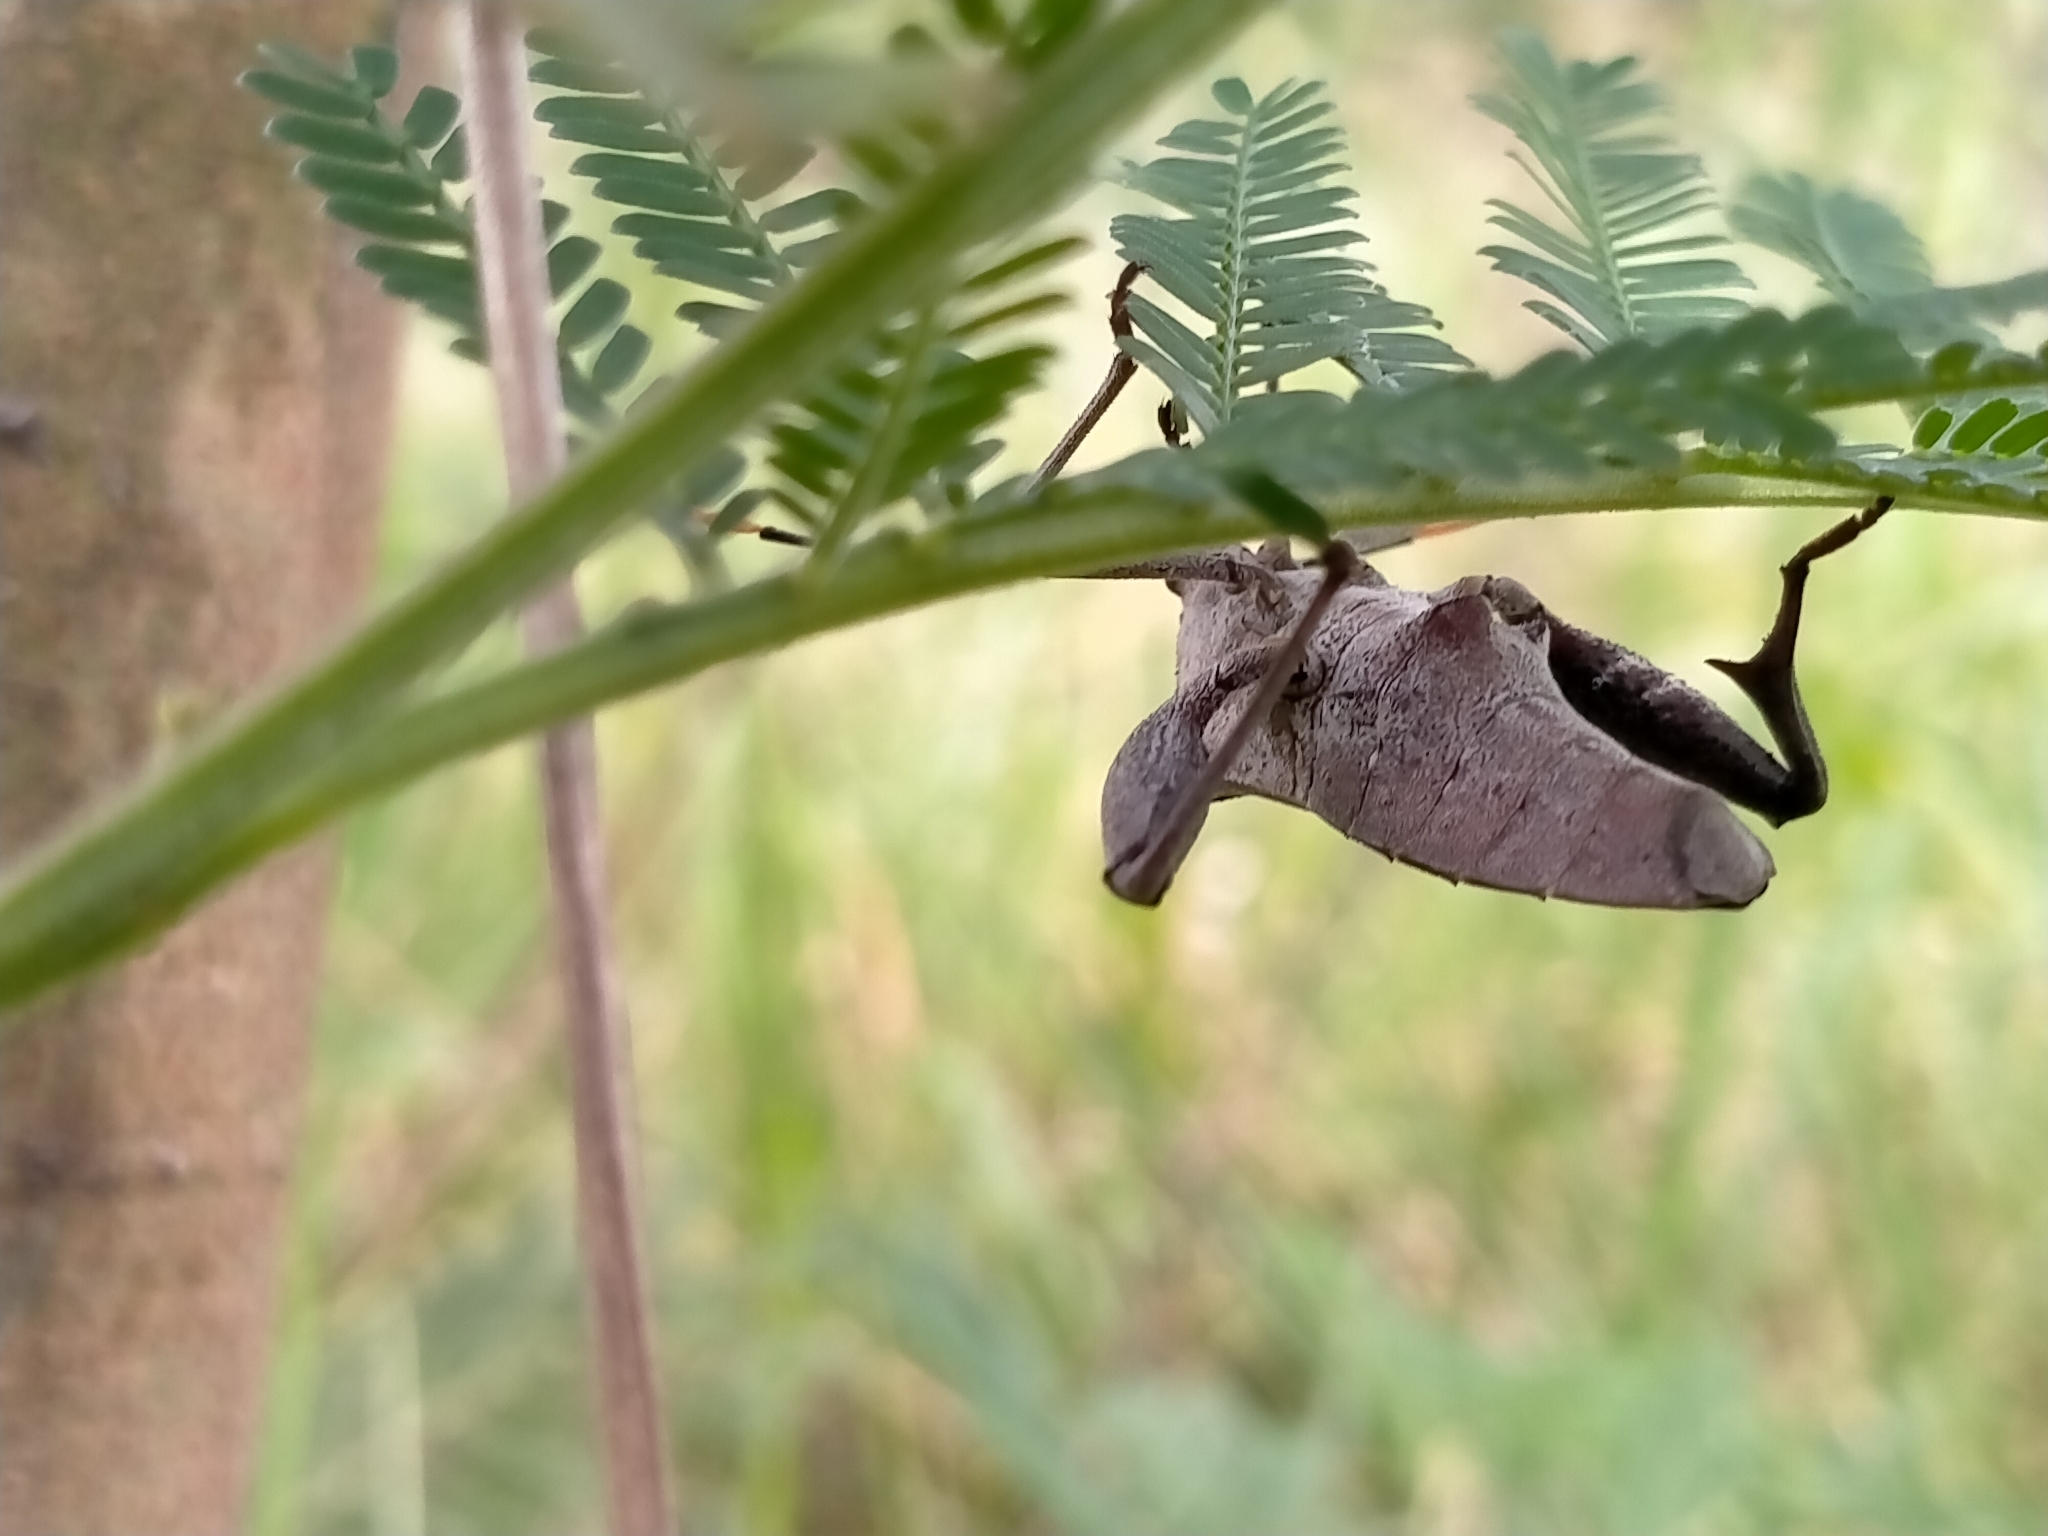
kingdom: Animalia
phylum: Arthropoda
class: Insecta
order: Hemiptera
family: Coreidae
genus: Mictis
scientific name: Mictis profana
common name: Crusader bug
